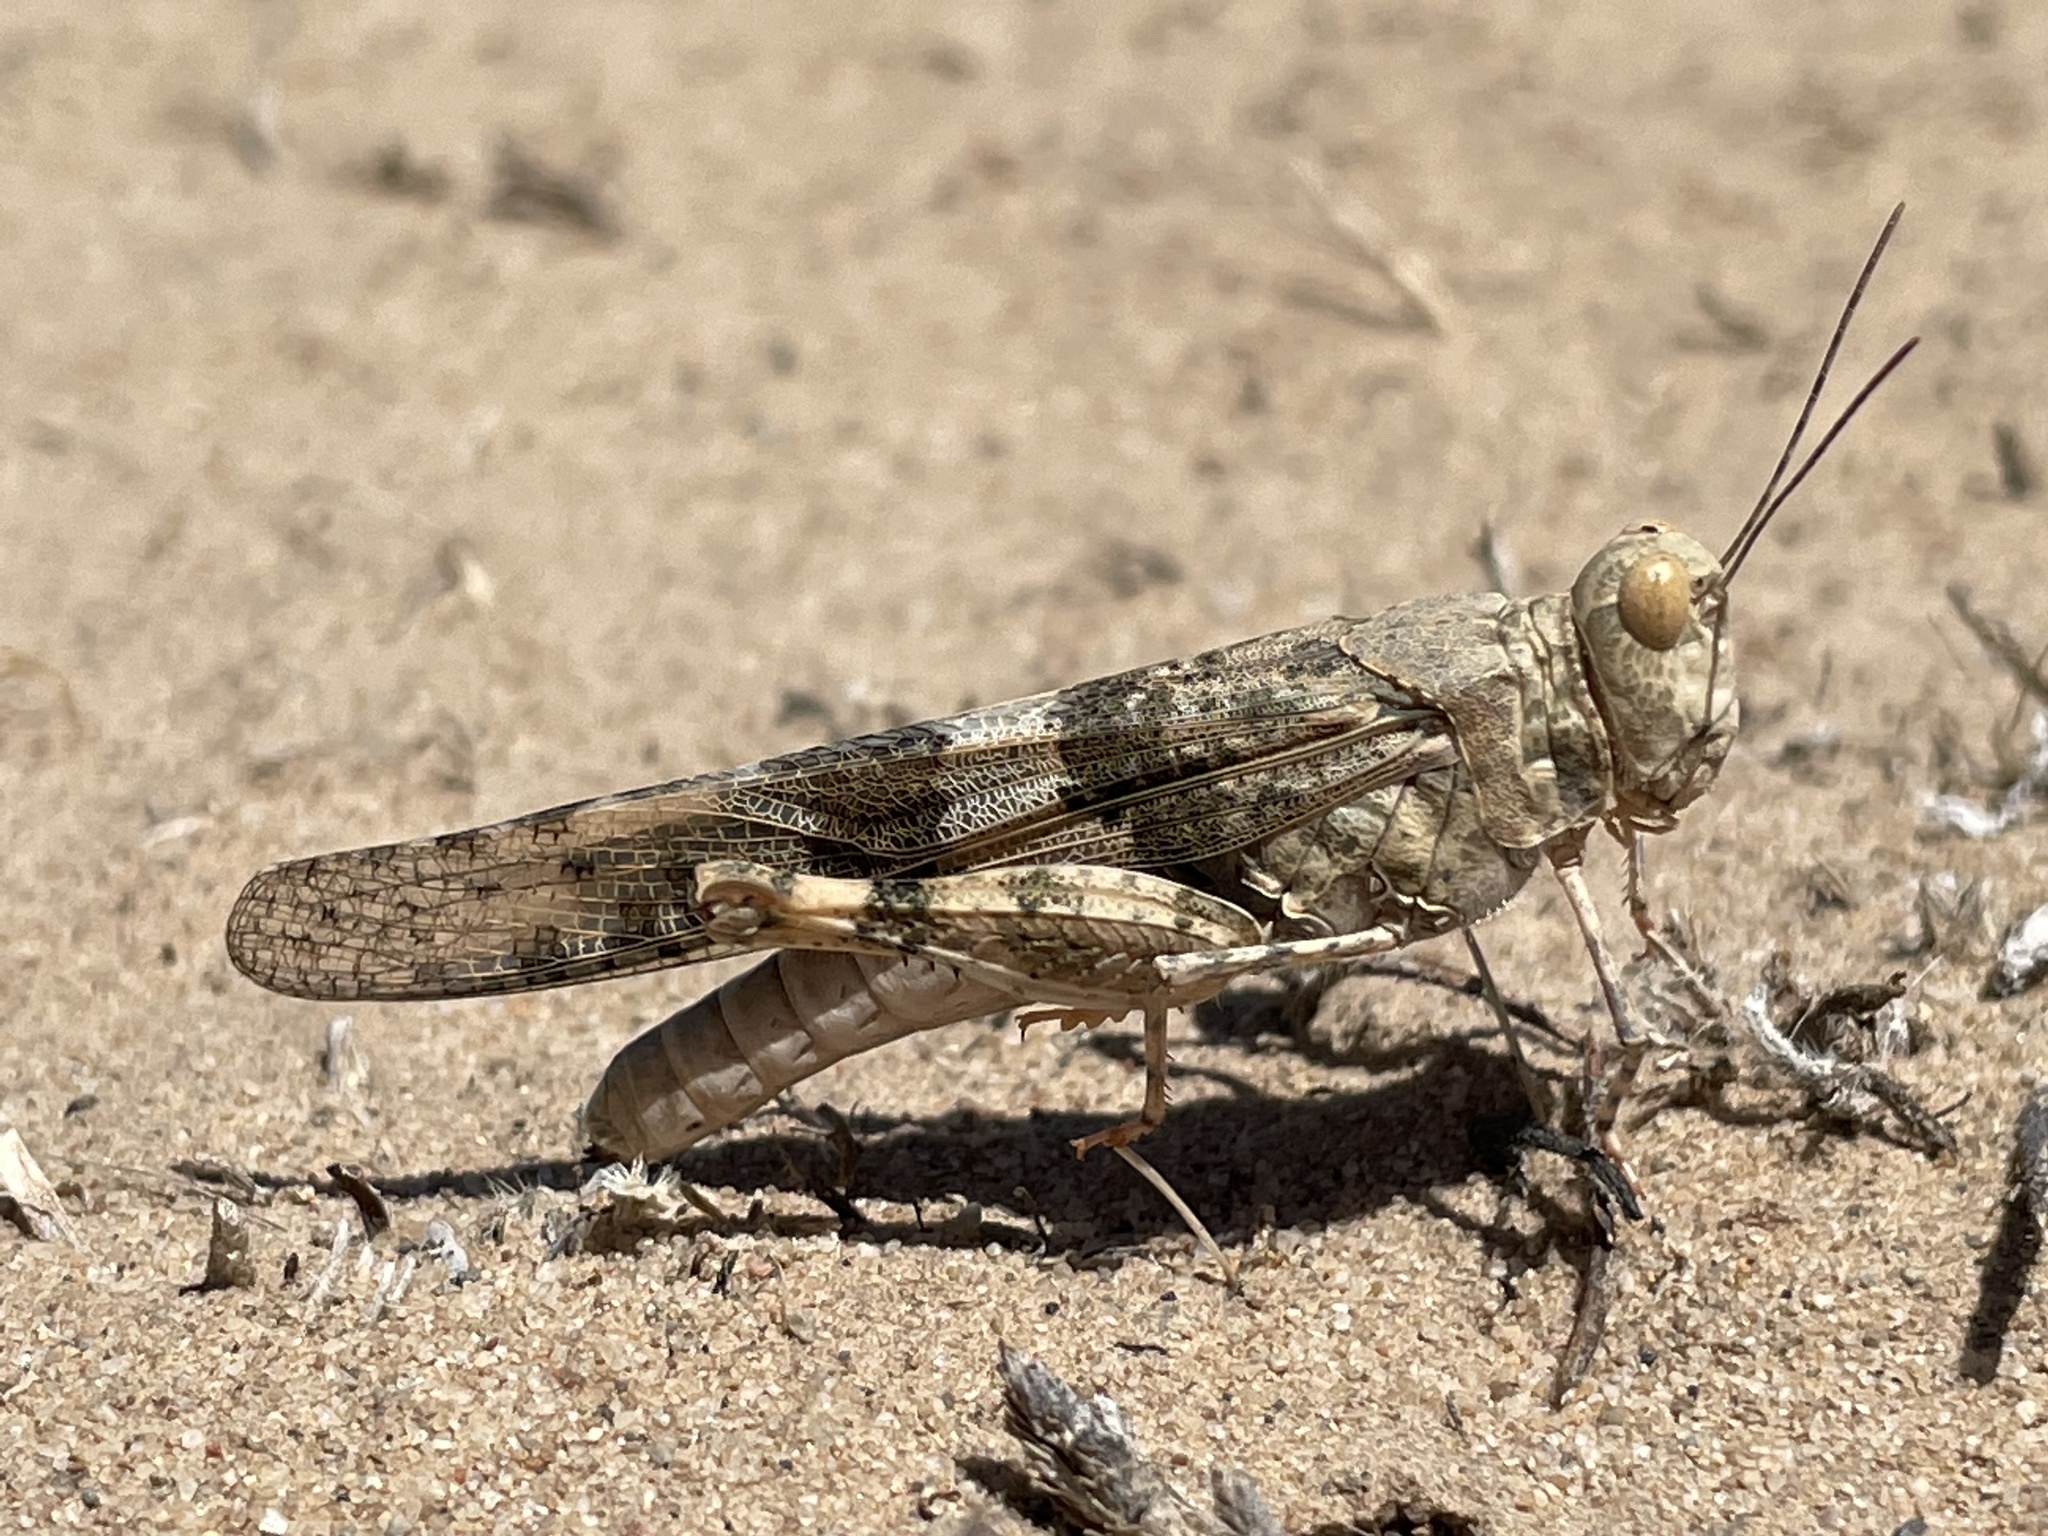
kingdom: Animalia
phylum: Arthropoda
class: Insecta
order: Orthoptera
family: Acrididae
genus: Trimerotropis
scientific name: Trimerotropis pallidipennis
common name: Pallid-winged grasshopper
